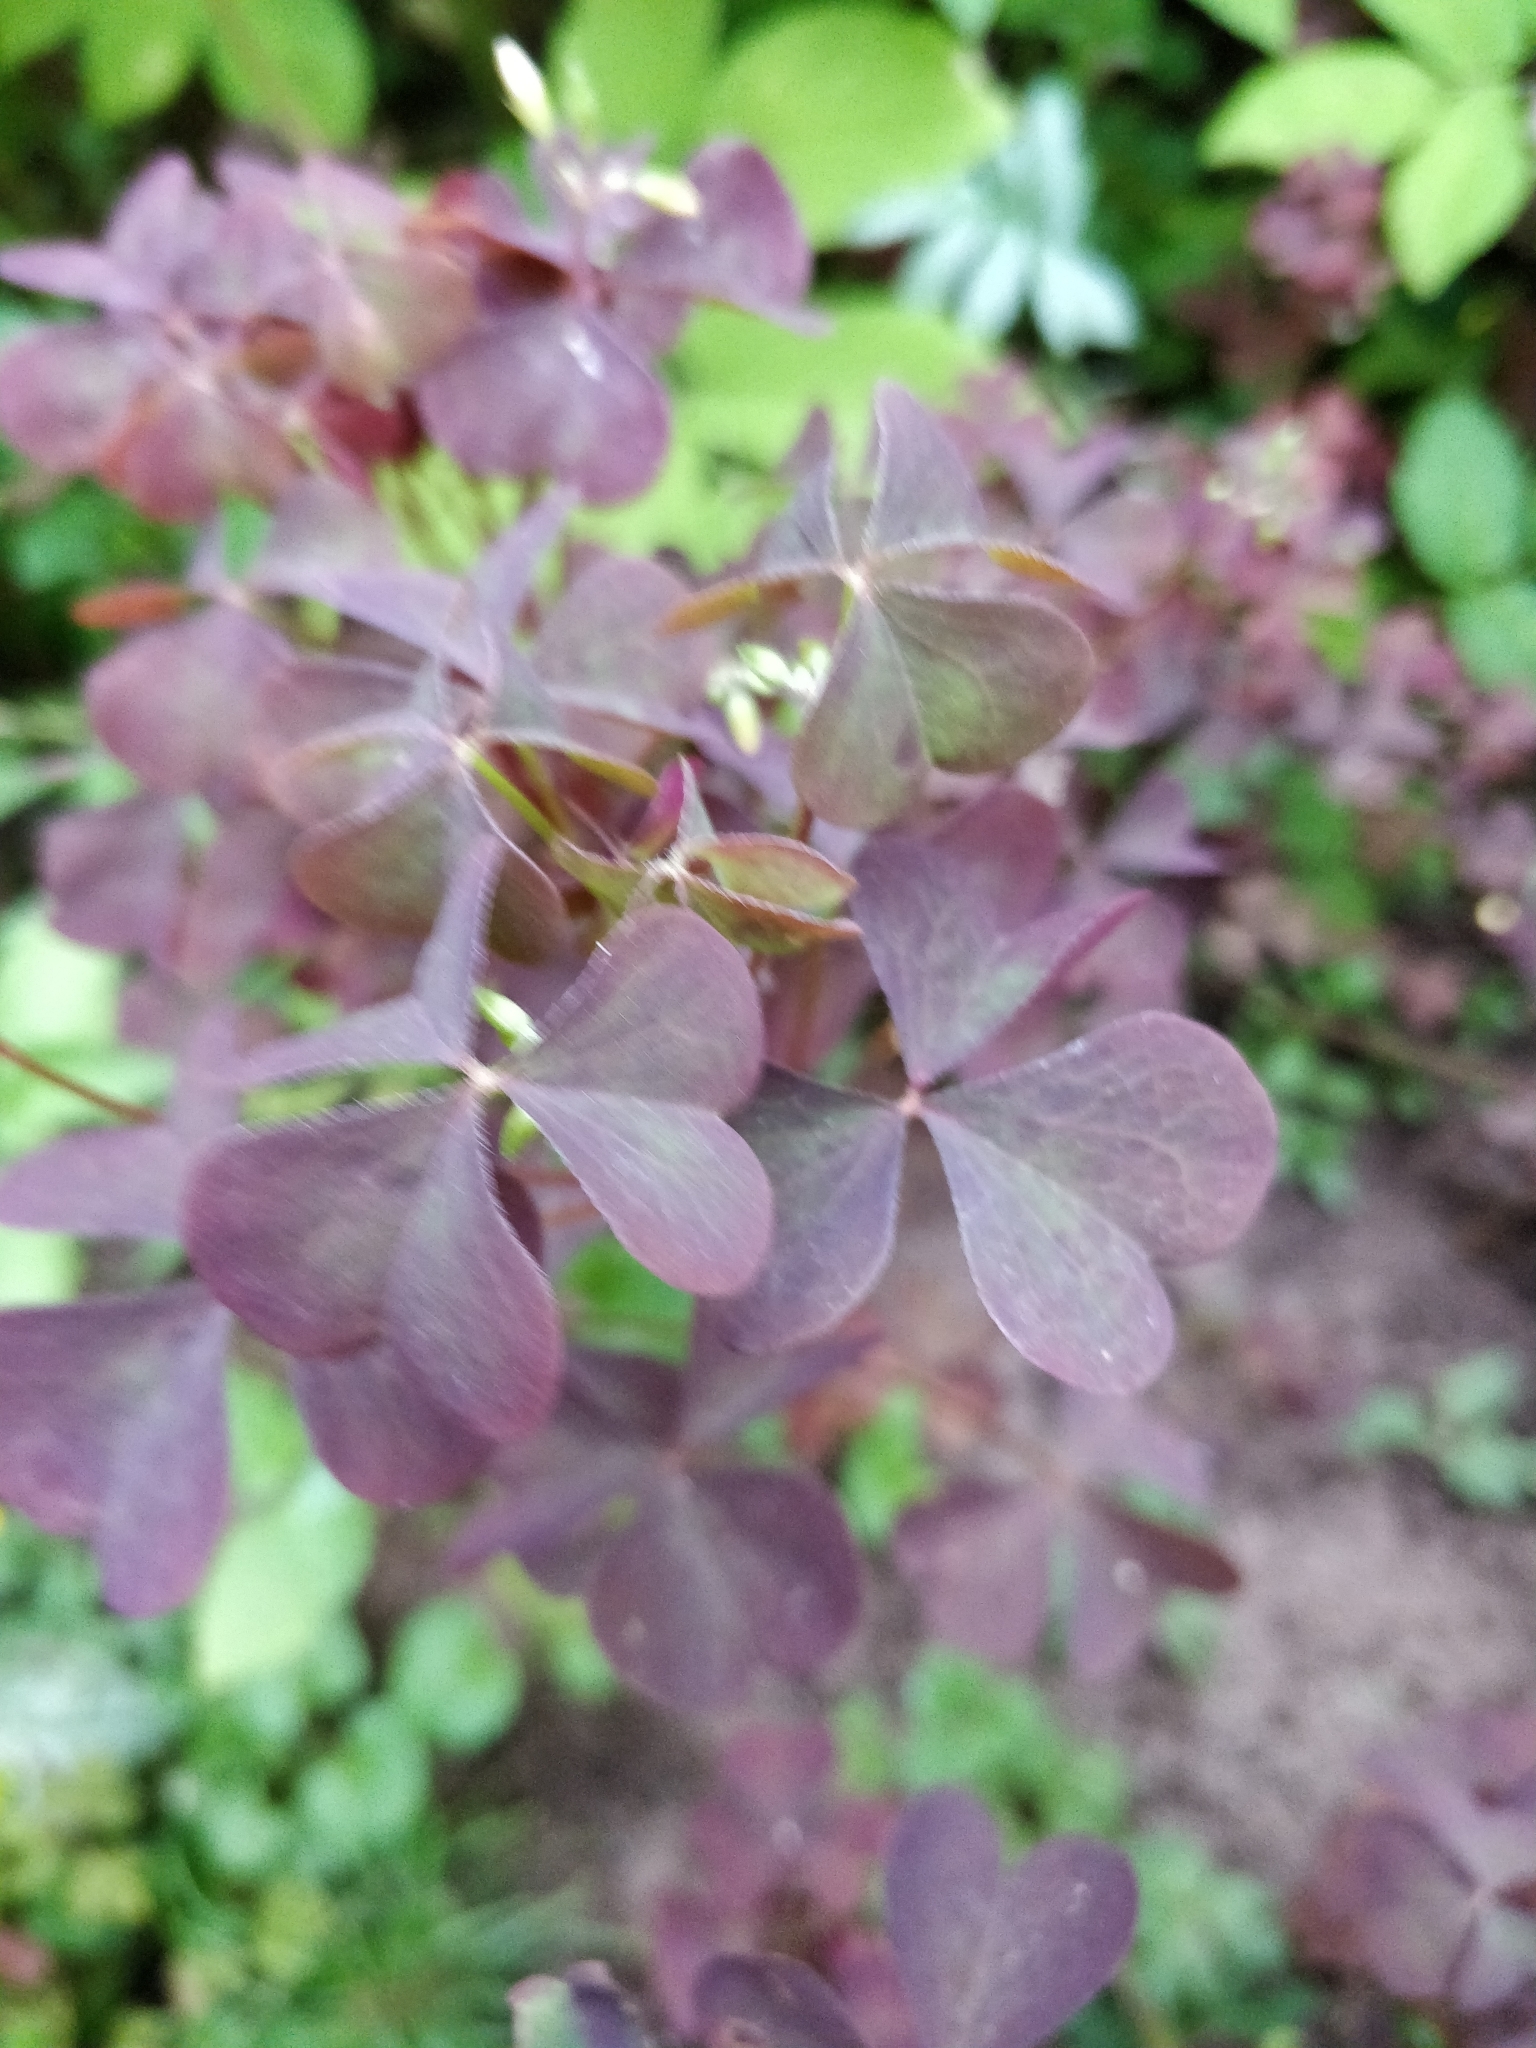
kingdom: Plantae
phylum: Tracheophyta
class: Magnoliopsida
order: Oxalidales
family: Oxalidaceae
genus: Oxalis
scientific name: Oxalis stricta
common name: Upright yellow-sorrel
